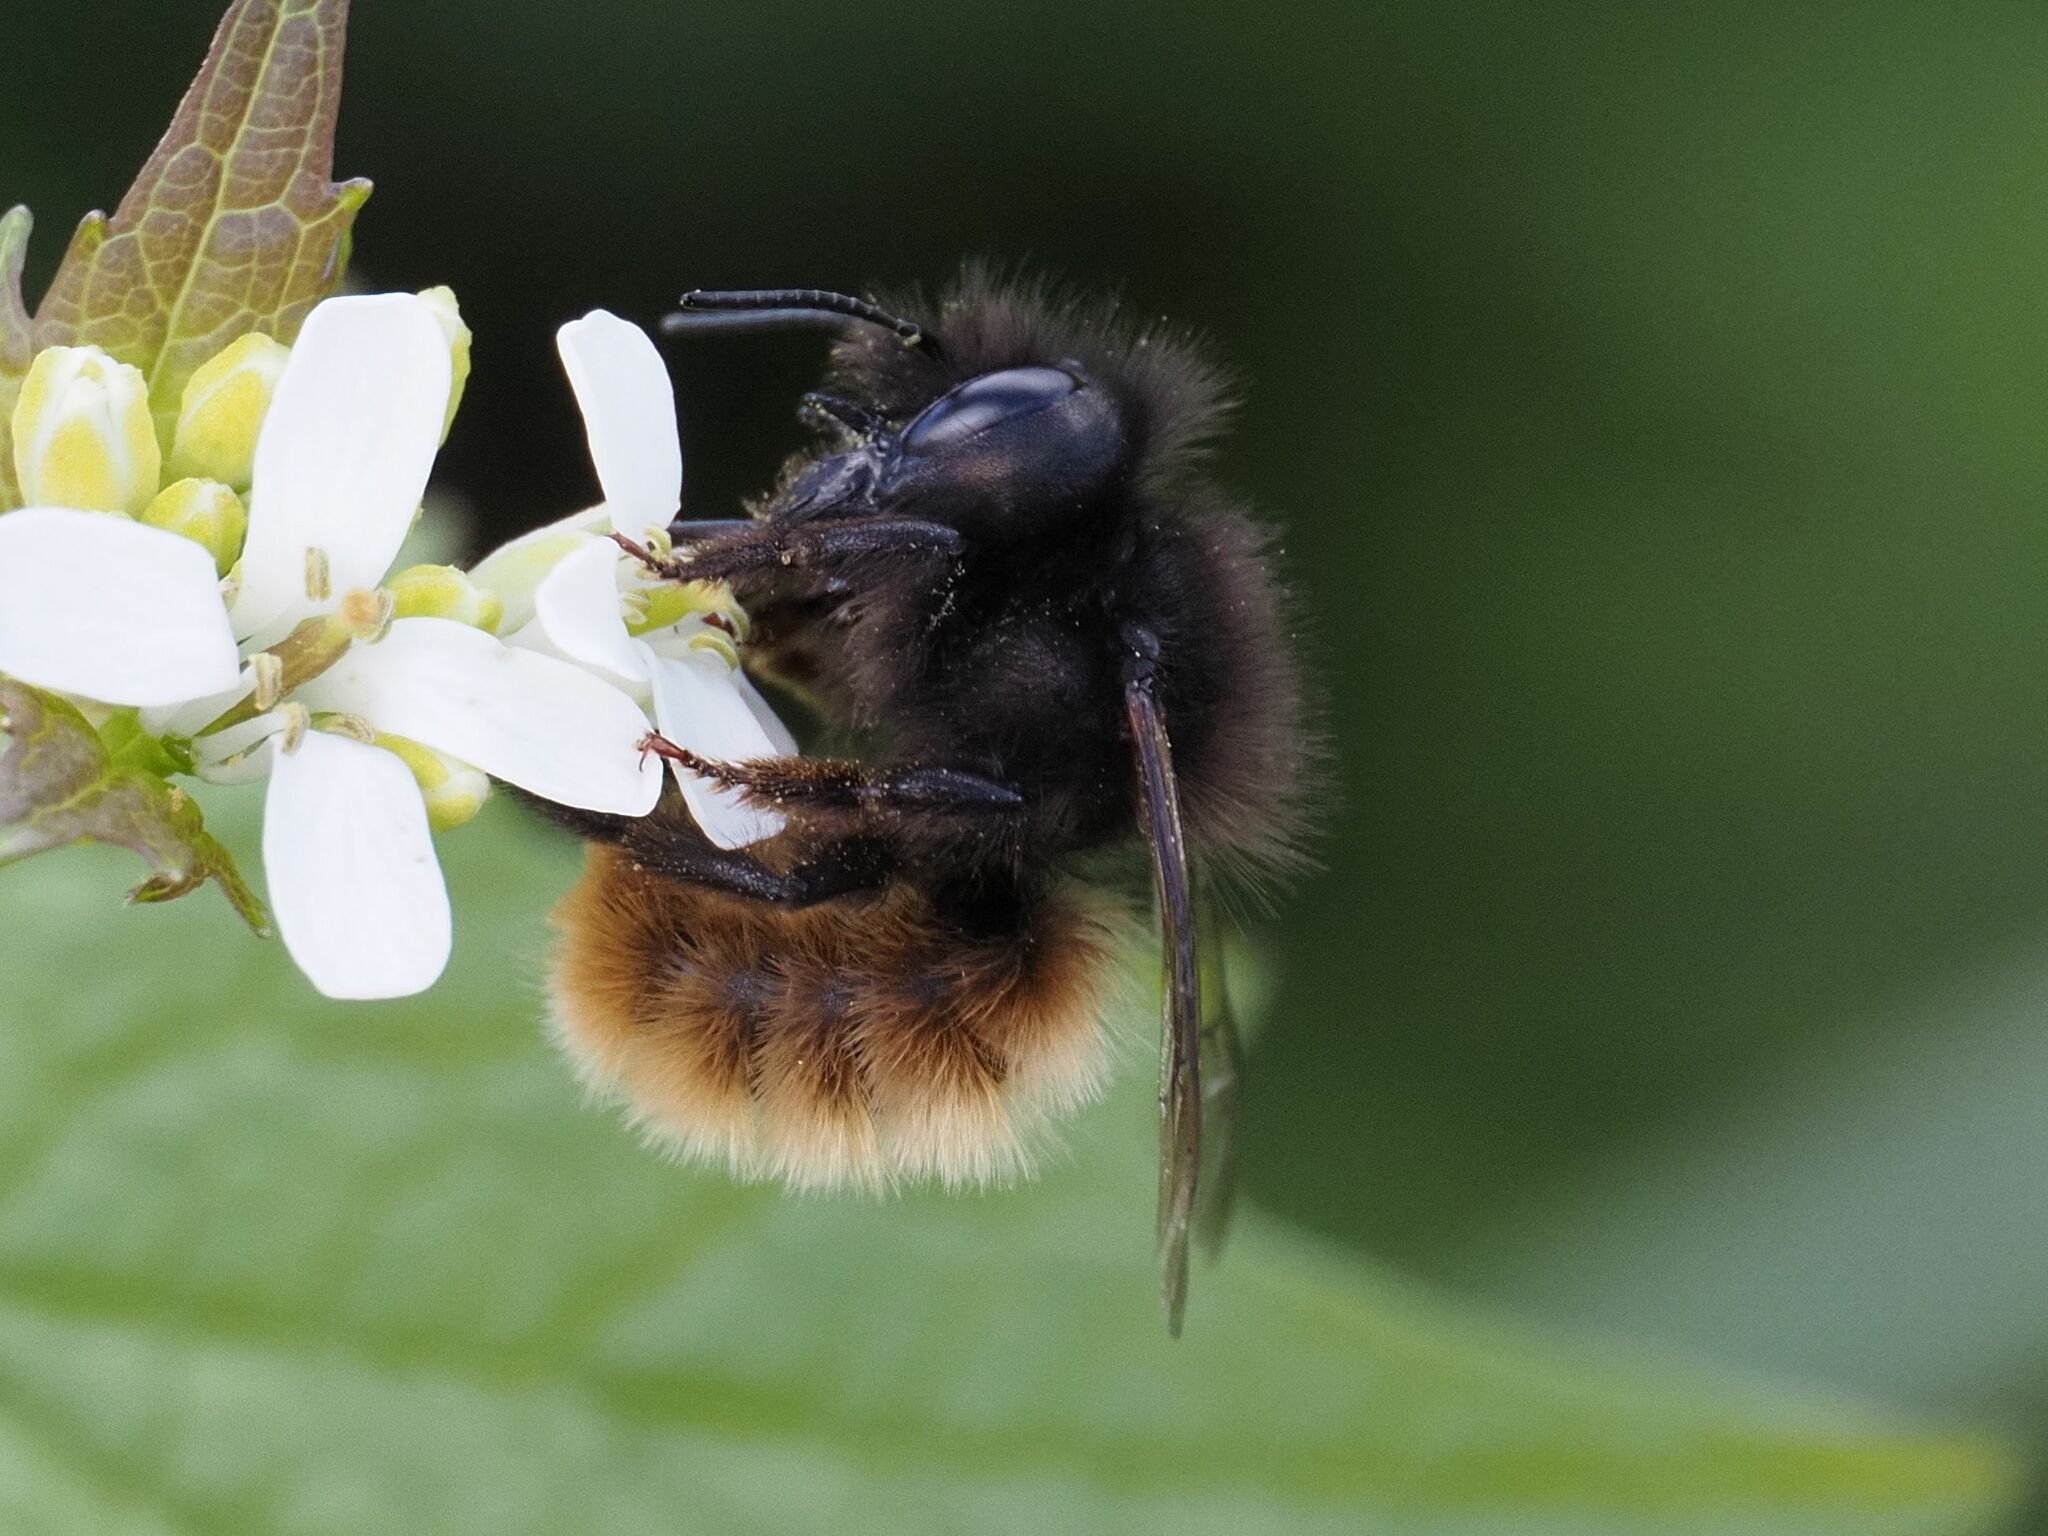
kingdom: Animalia
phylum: Arthropoda
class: Insecta
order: Hymenoptera
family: Megachilidae
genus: Osmia
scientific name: Osmia cornuta
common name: Mason bee
